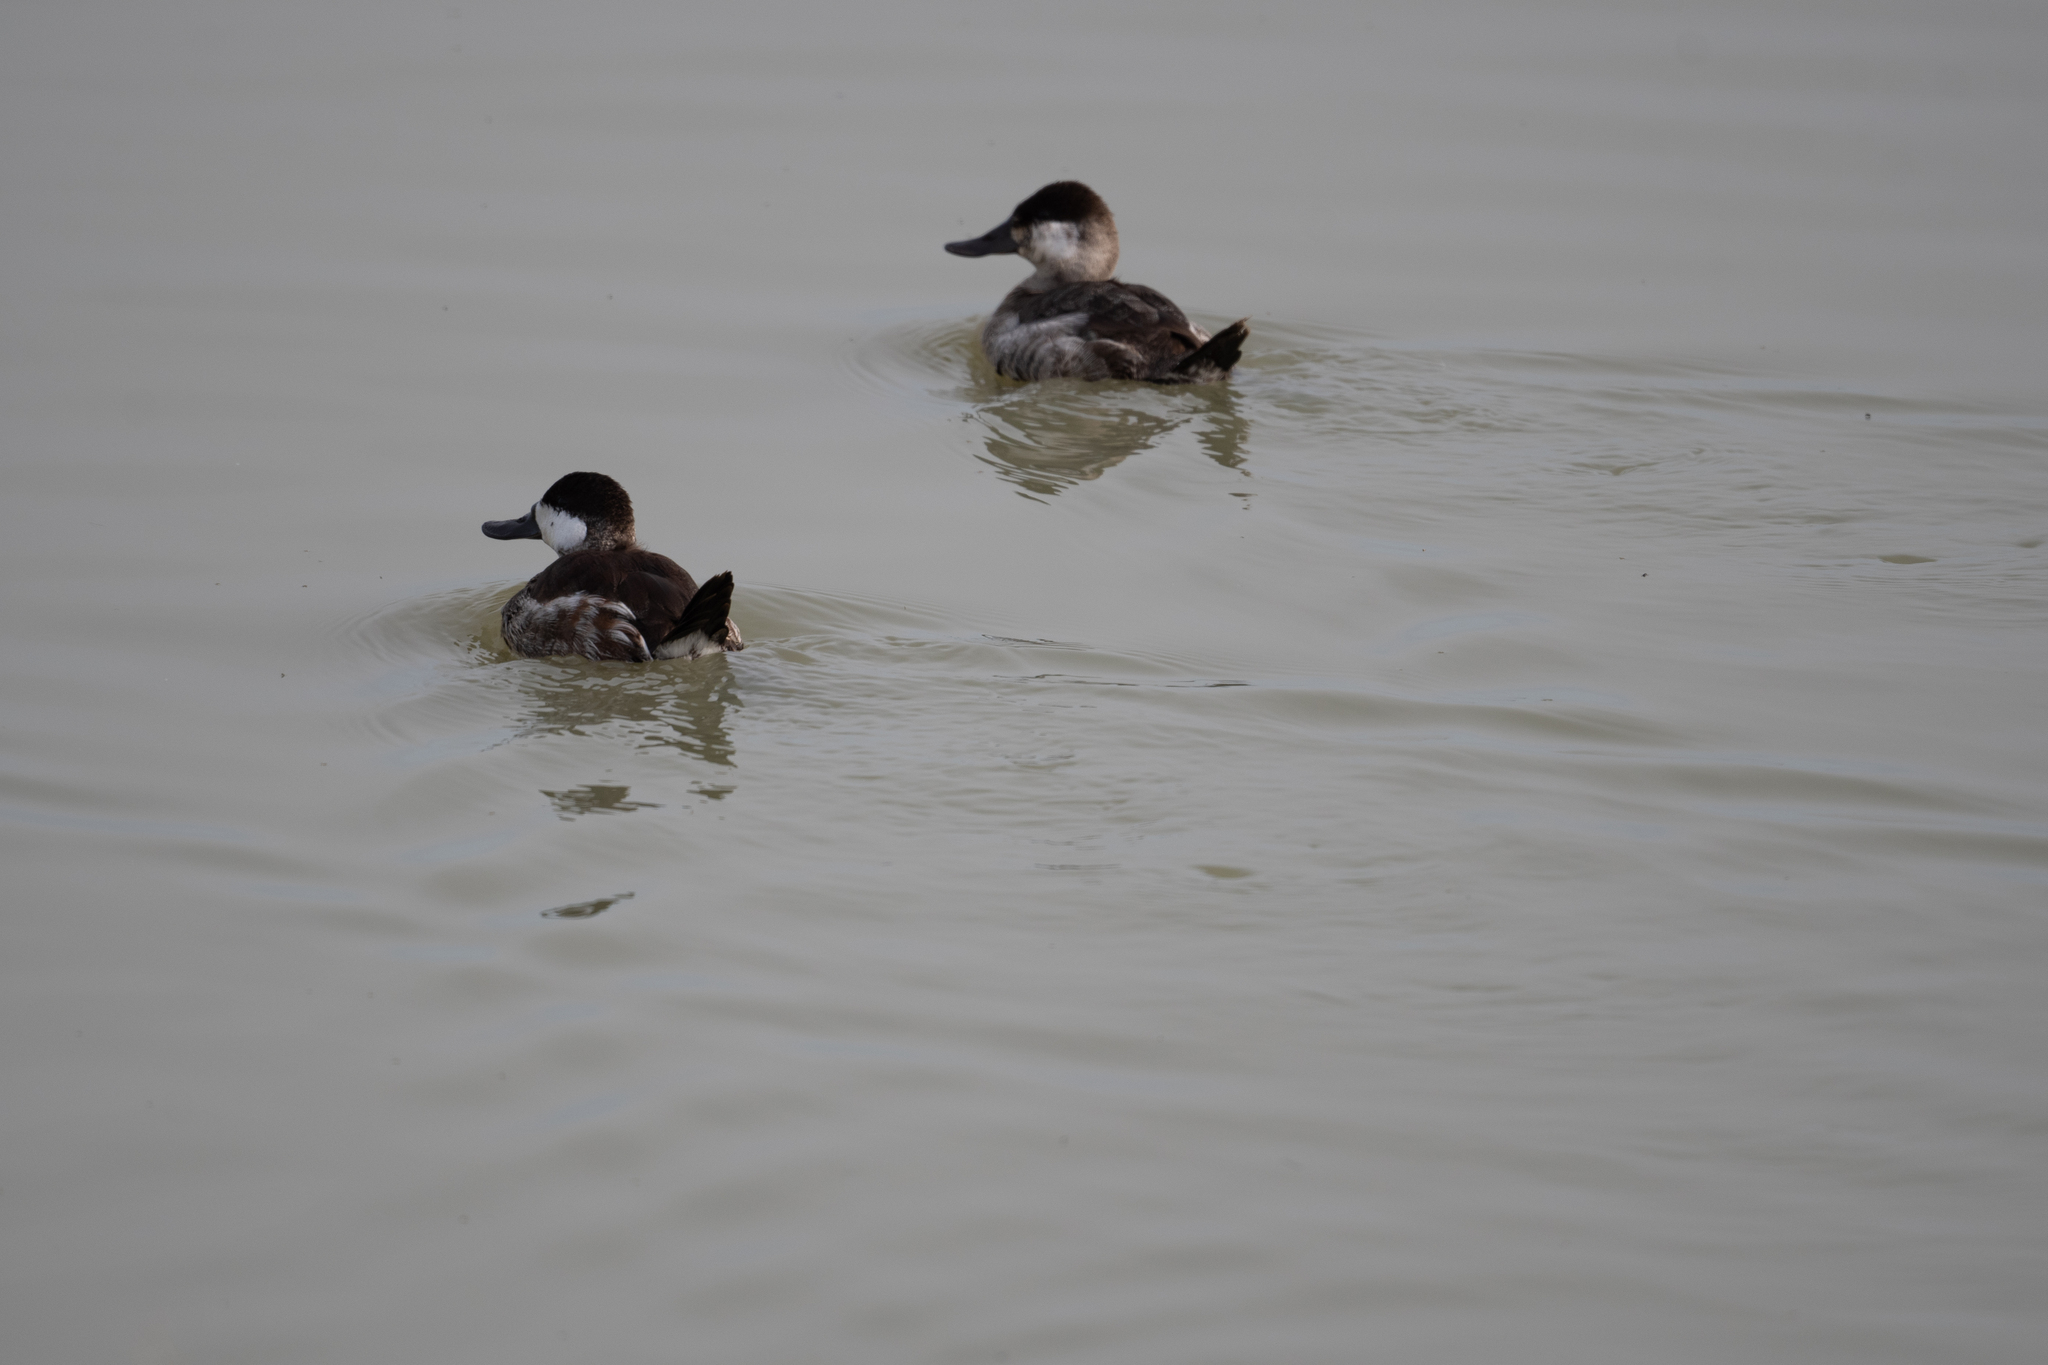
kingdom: Animalia
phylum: Chordata
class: Aves
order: Anseriformes
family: Anatidae
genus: Oxyura
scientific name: Oxyura jamaicensis
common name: Ruddy duck
